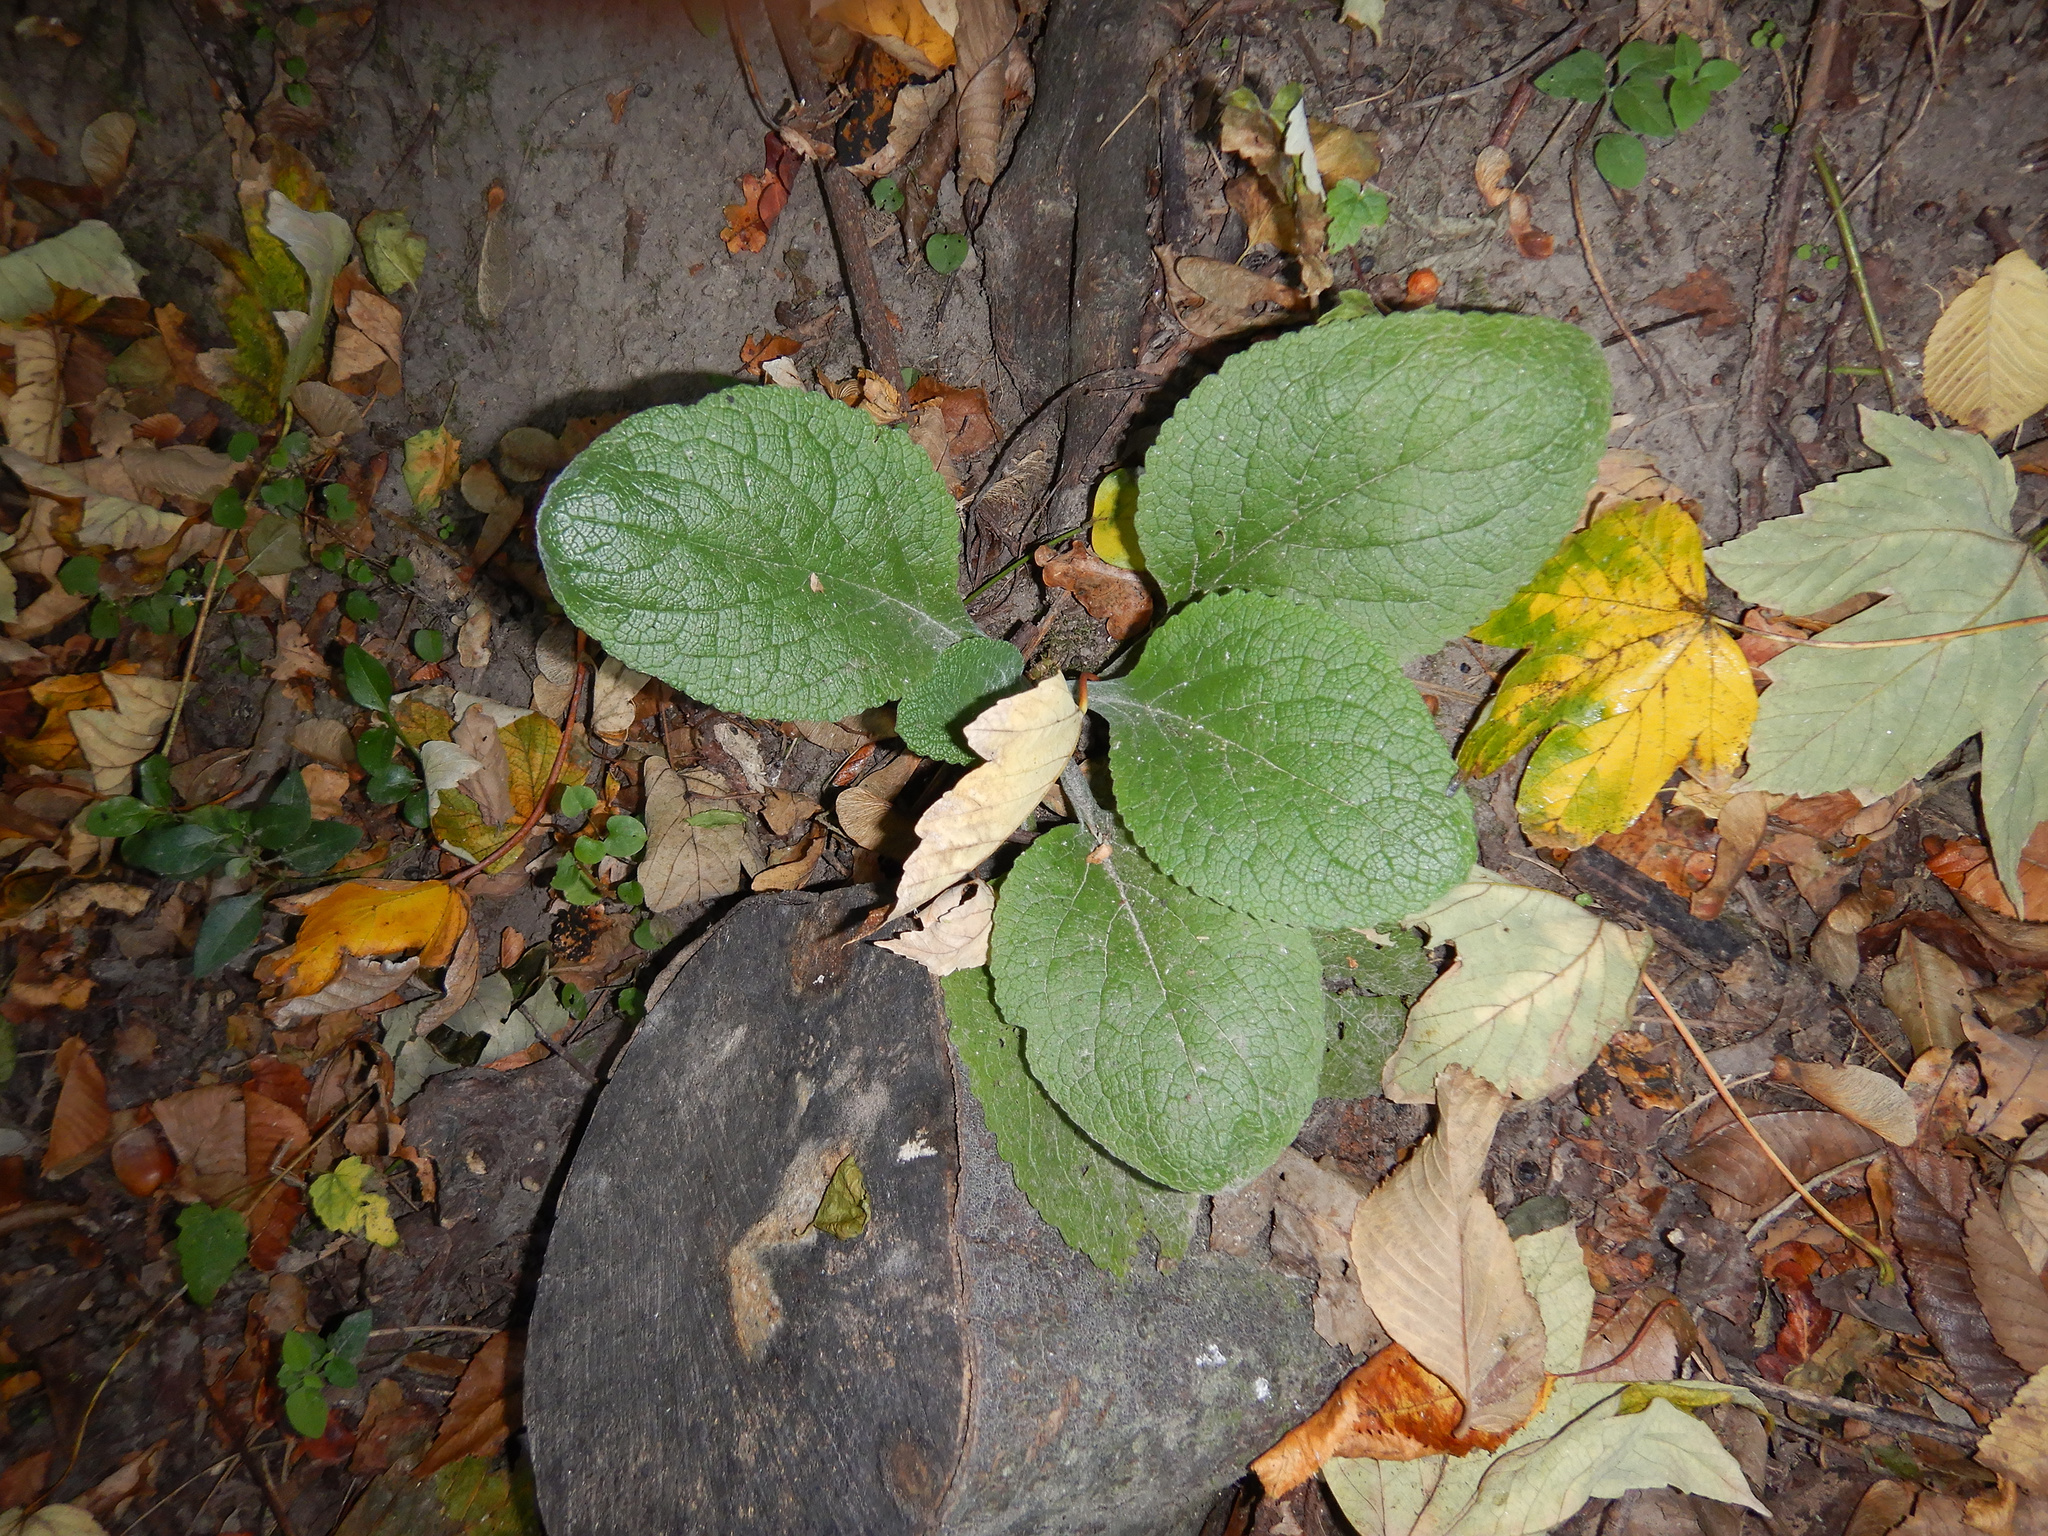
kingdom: Plantae
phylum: Tracheophyta
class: Magnoliopsida
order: Lamiales
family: Plantaginaceae
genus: Digitalis
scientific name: Digitalis purpurea
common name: Foxglove
